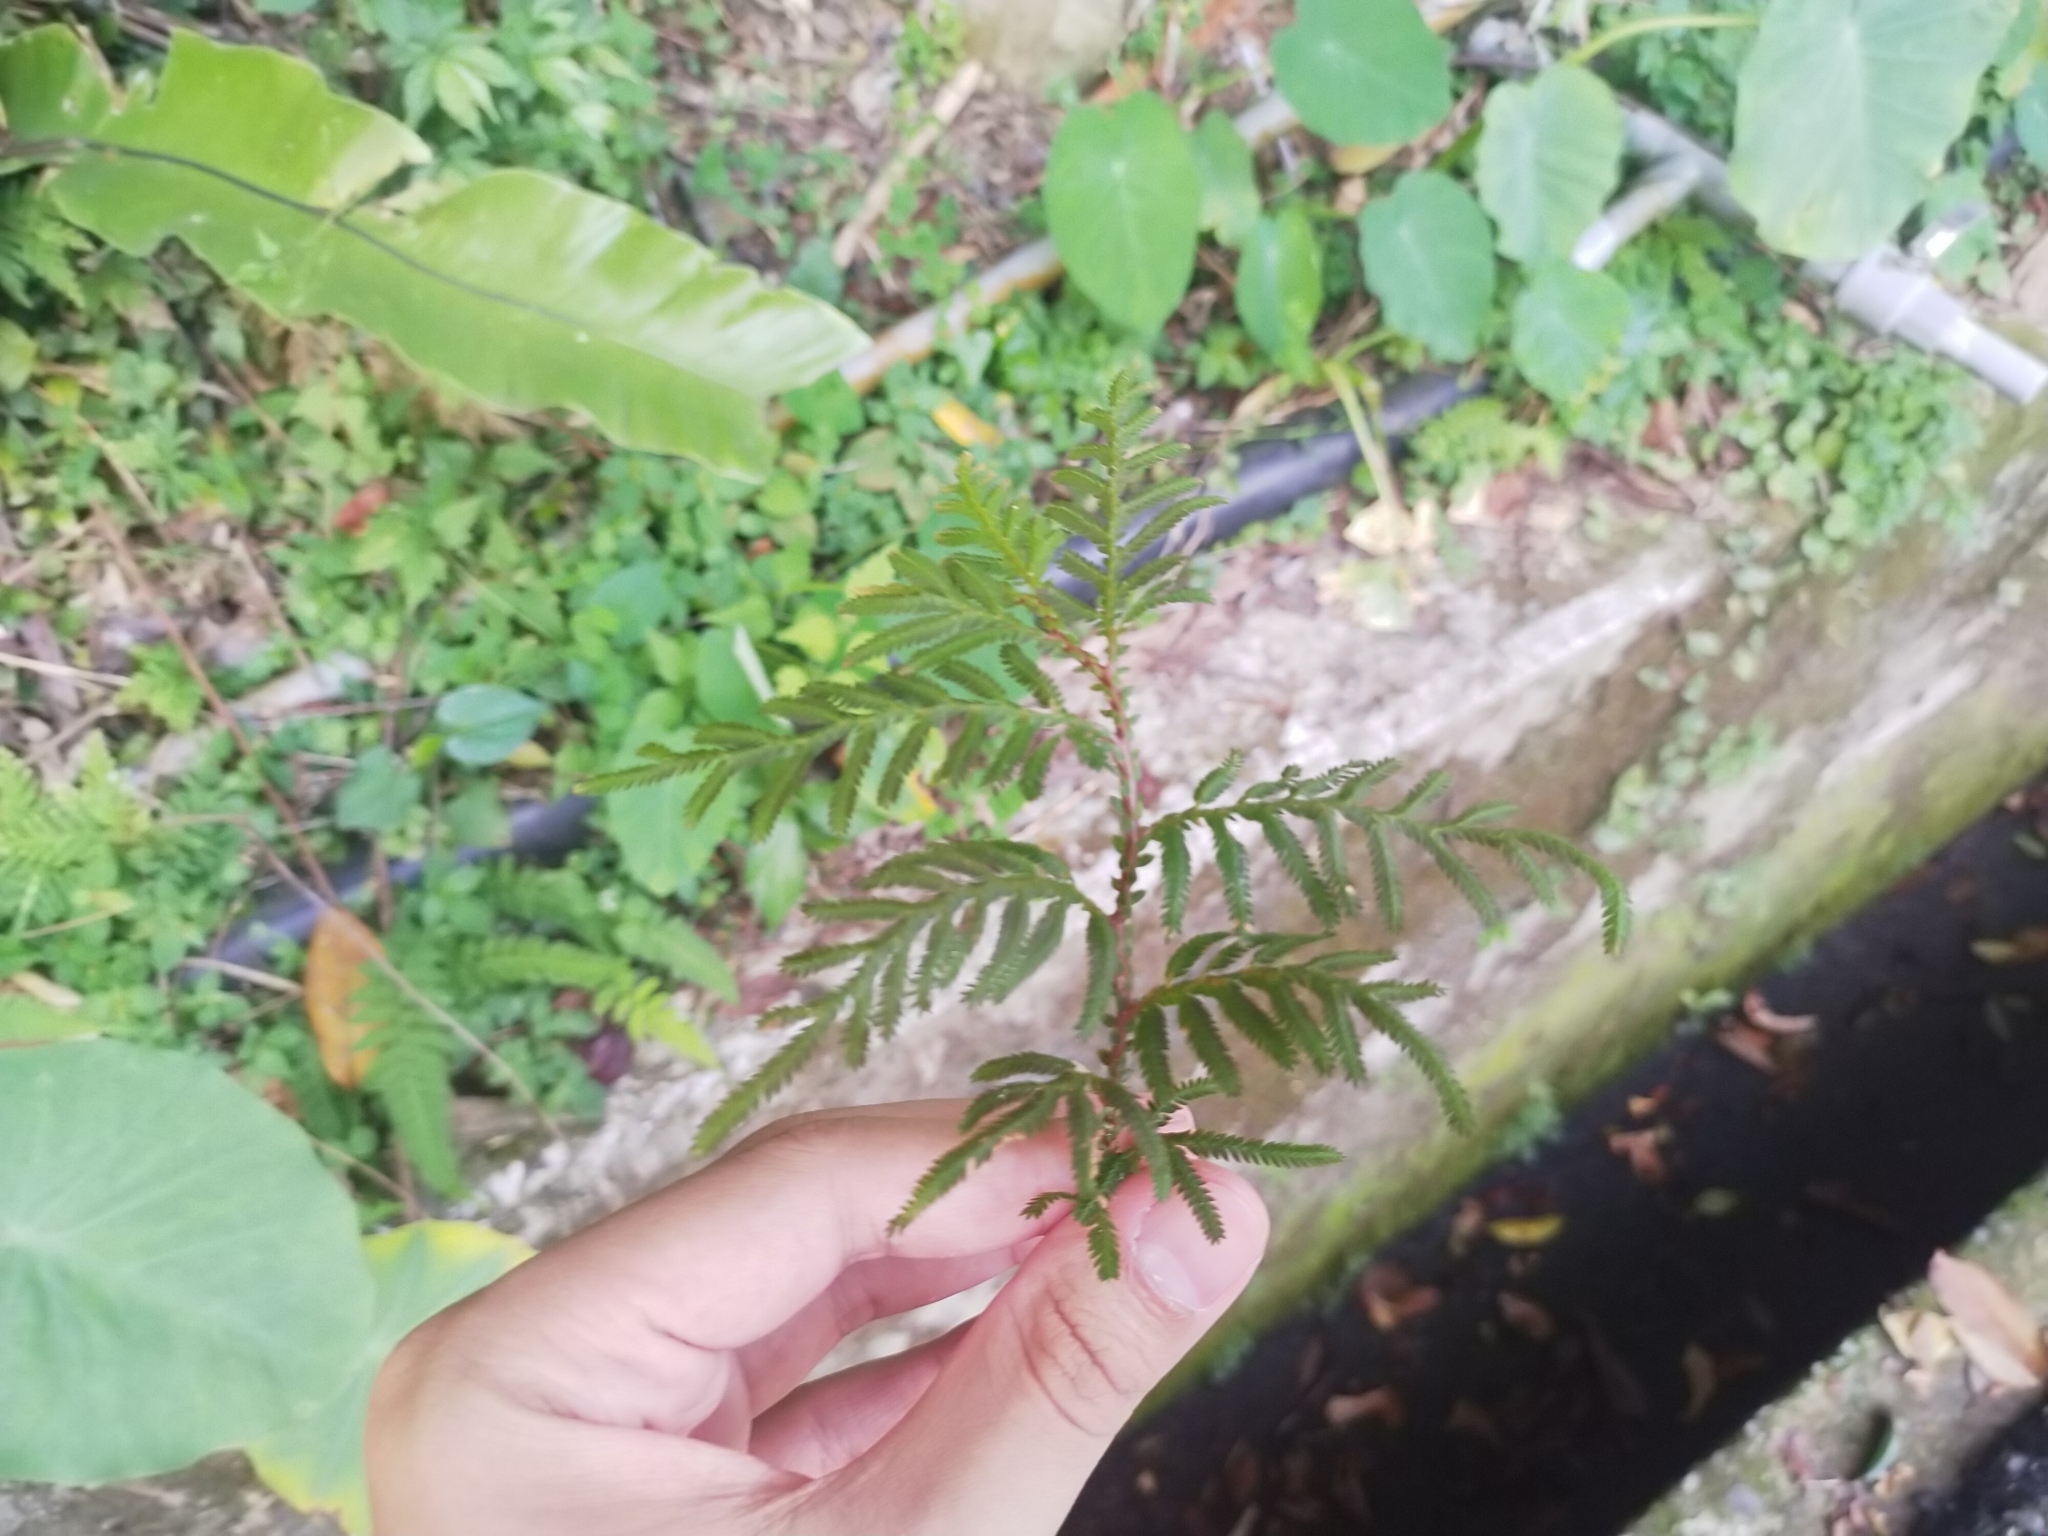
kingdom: Plantae
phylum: Tracheophyta
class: Lycopodiopsida
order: Selaginellales
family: Selaginellaceae
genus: Selaginella
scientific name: Selaginella delicatula
